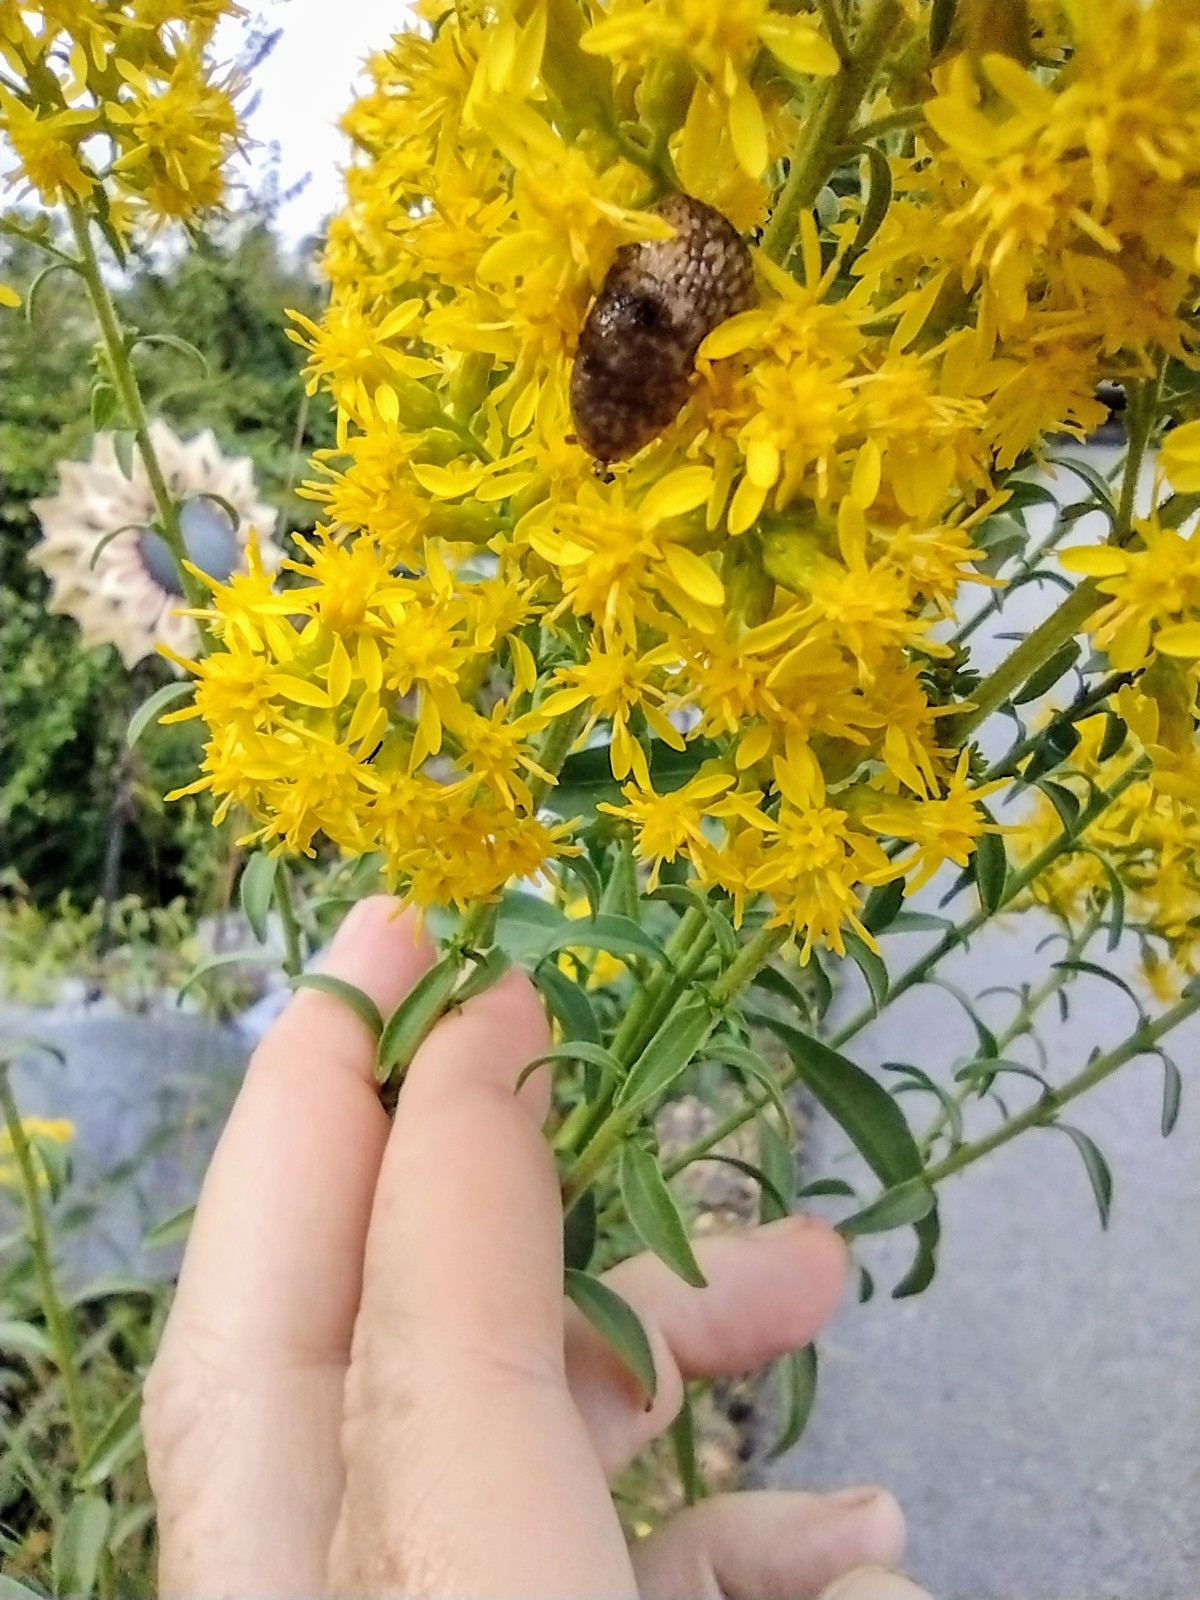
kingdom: Animalia
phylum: Mollusca
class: Gastropoda
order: Stylommatophora
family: Agriolimacidae
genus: Deroceras
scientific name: Deroceras reticulatum
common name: Gray field slug
